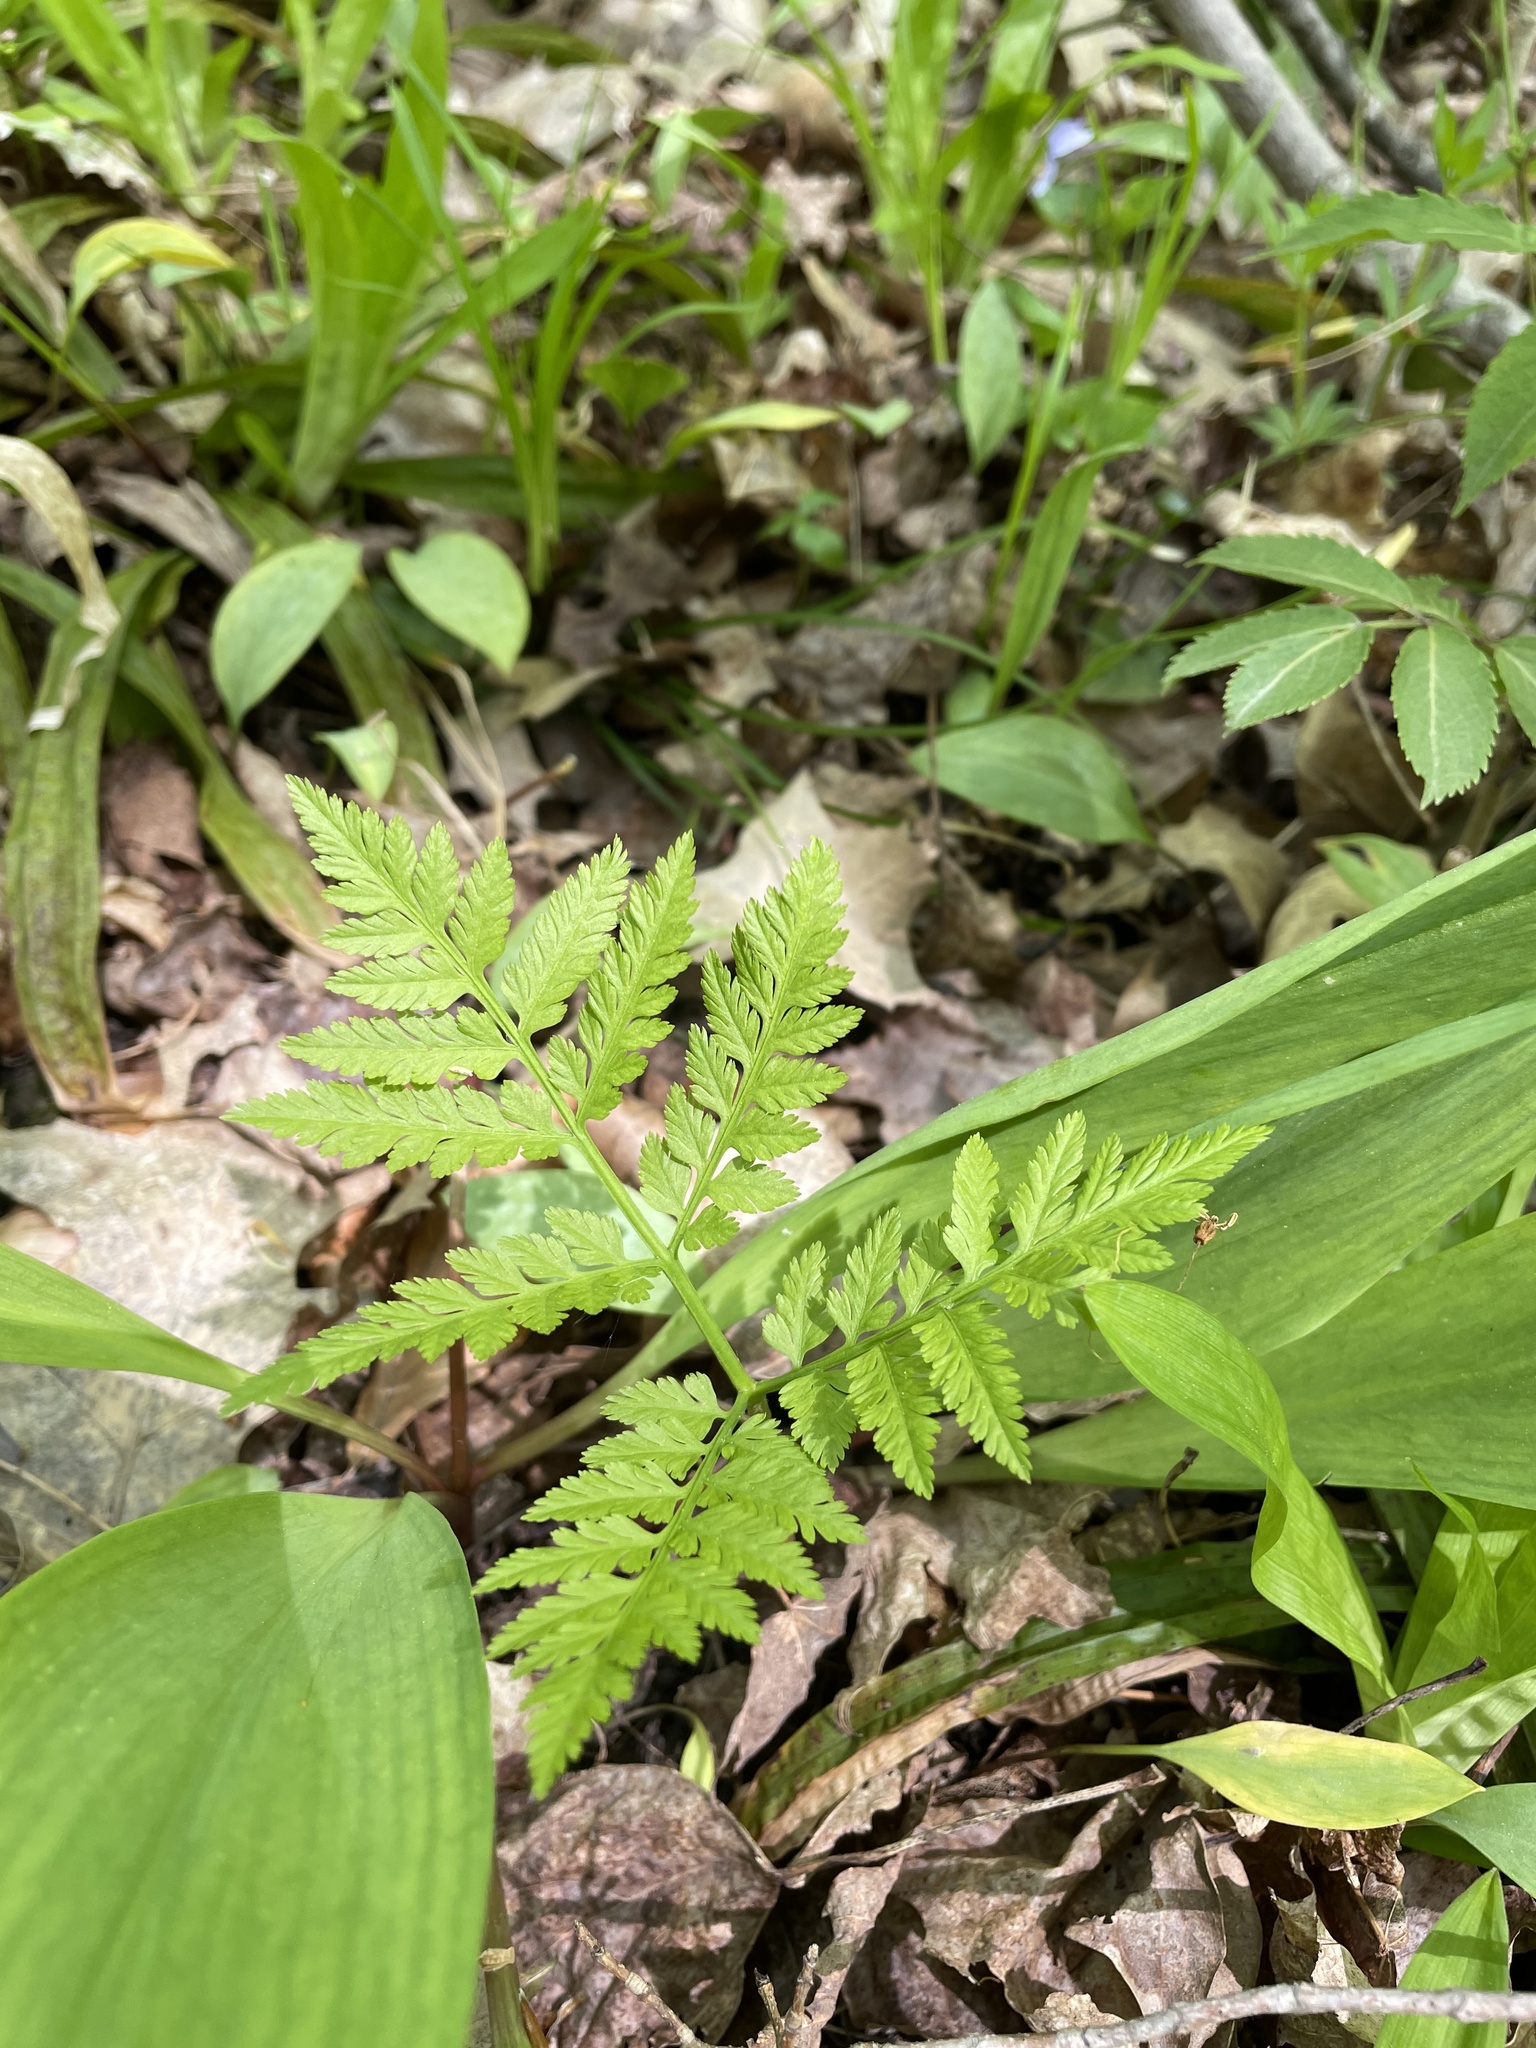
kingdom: Plantae
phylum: Tracheophyta
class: Polypodiopsida
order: Ophioglossales
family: Ophioglossaceae
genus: Botrypus
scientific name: Botrypus virginianus
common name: Common grapefern
